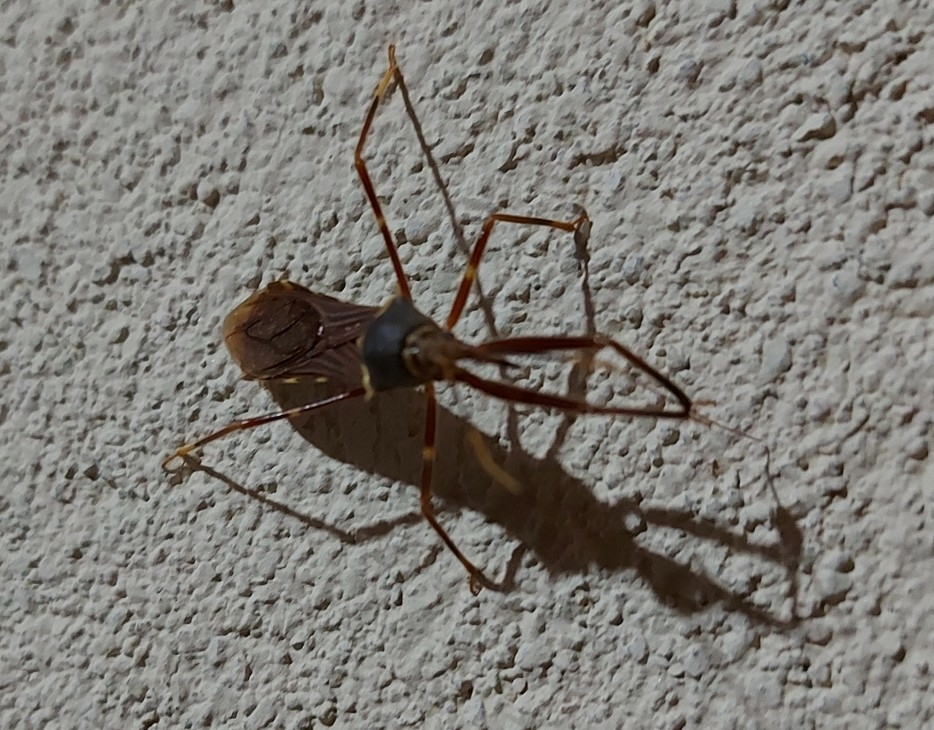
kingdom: Animalia
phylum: Arthropoda
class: Insecta
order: Hemiptera
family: Reduviidae
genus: Isocondylus
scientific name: Isocondylus elongatus
